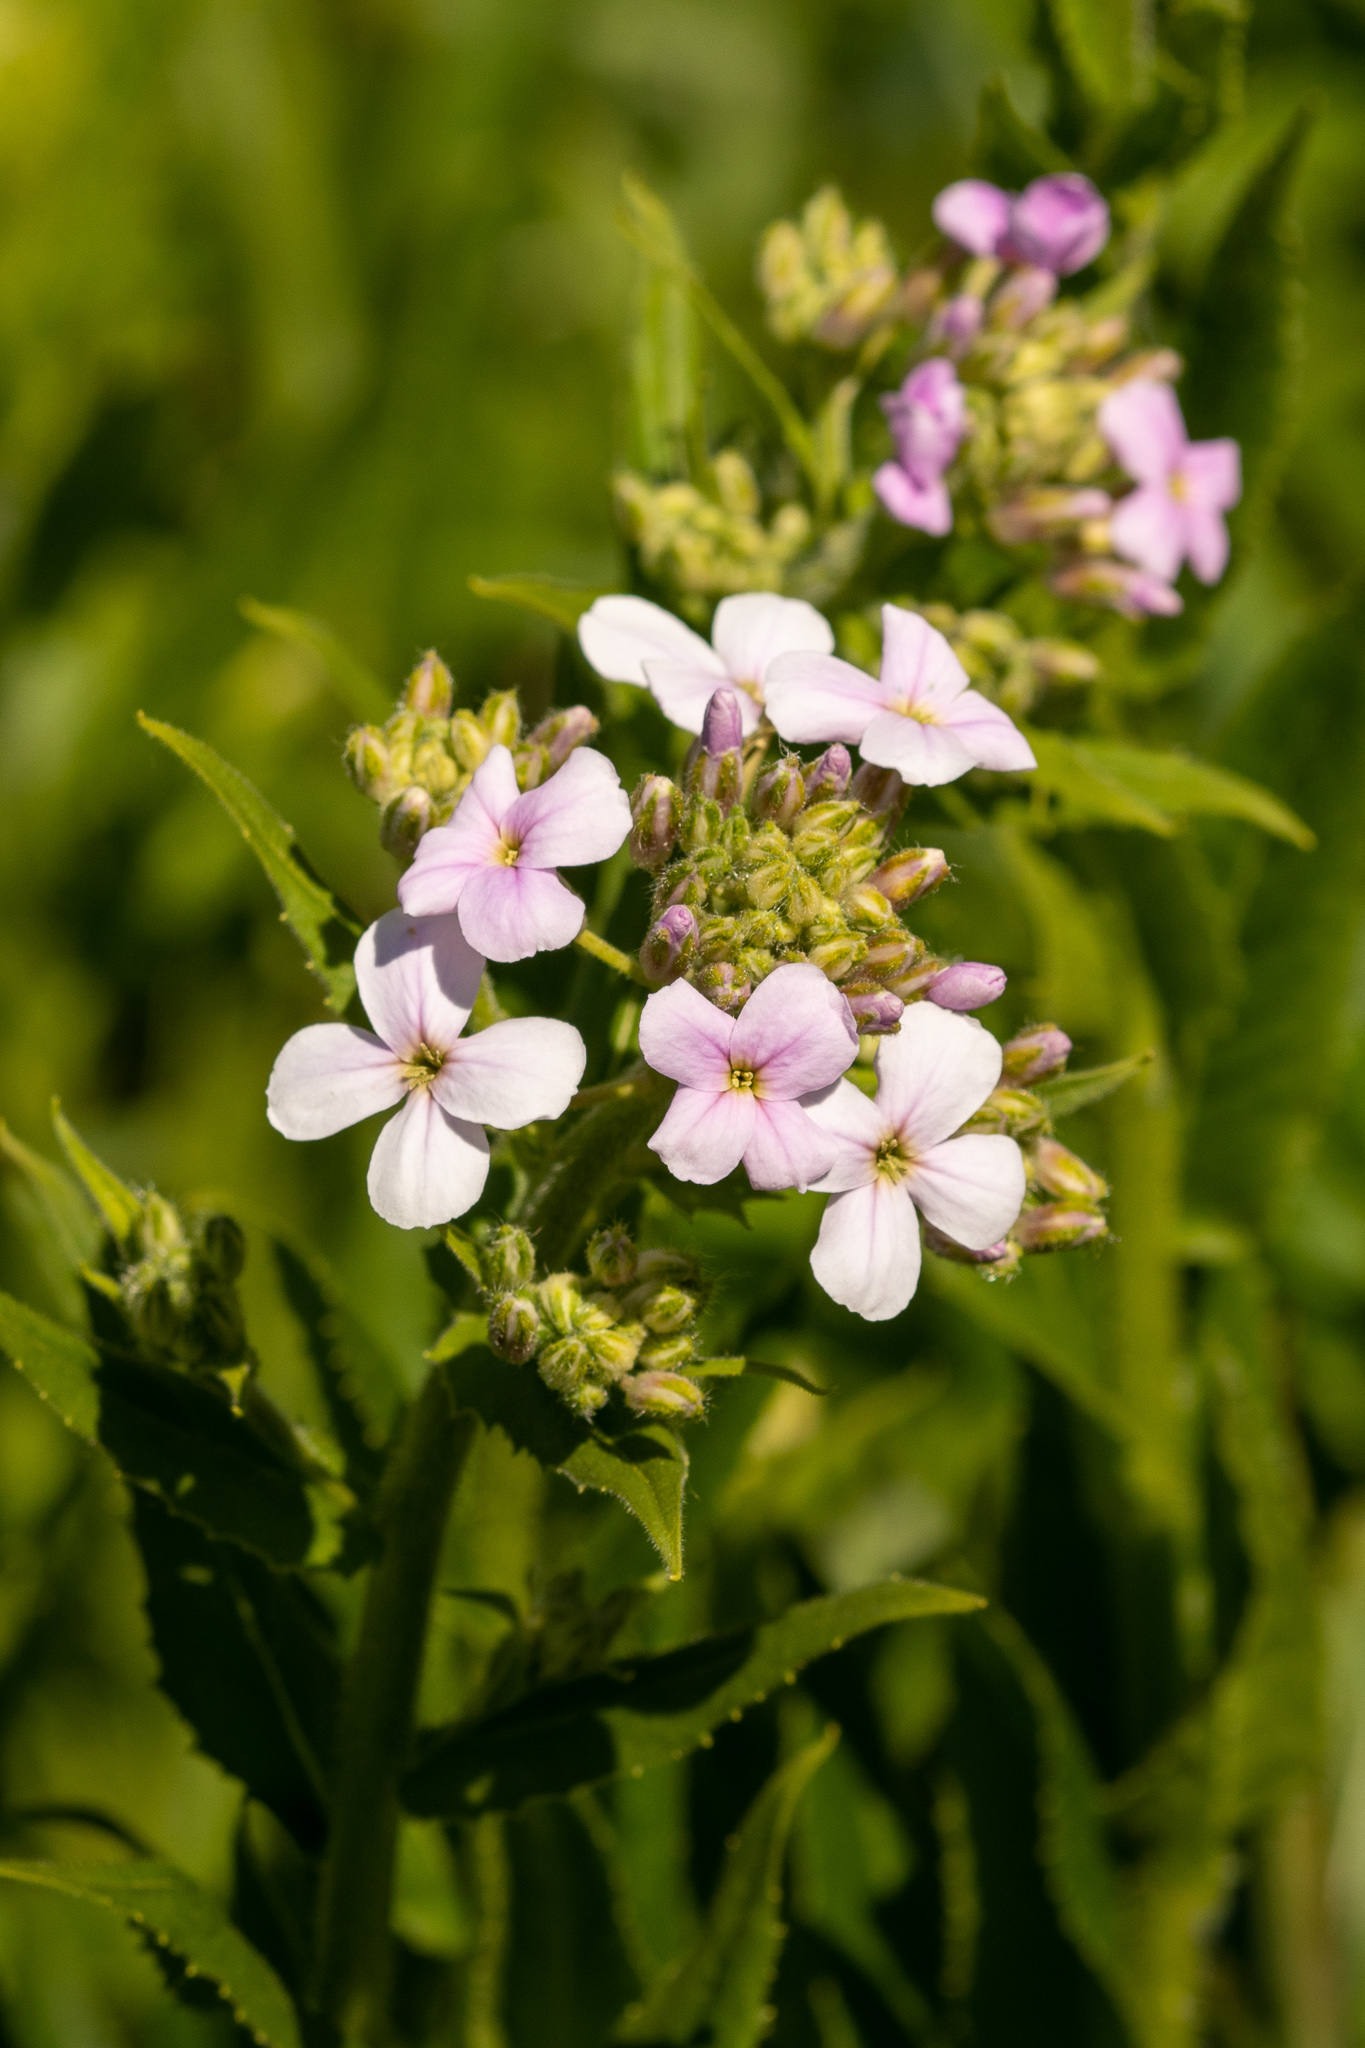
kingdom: Plantae
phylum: Tracheophyta
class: Magnoliopsida
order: Brassicales
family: Brassicaceae
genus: Hesperis
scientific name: Hesperis matronalis
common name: Dame's-violet
